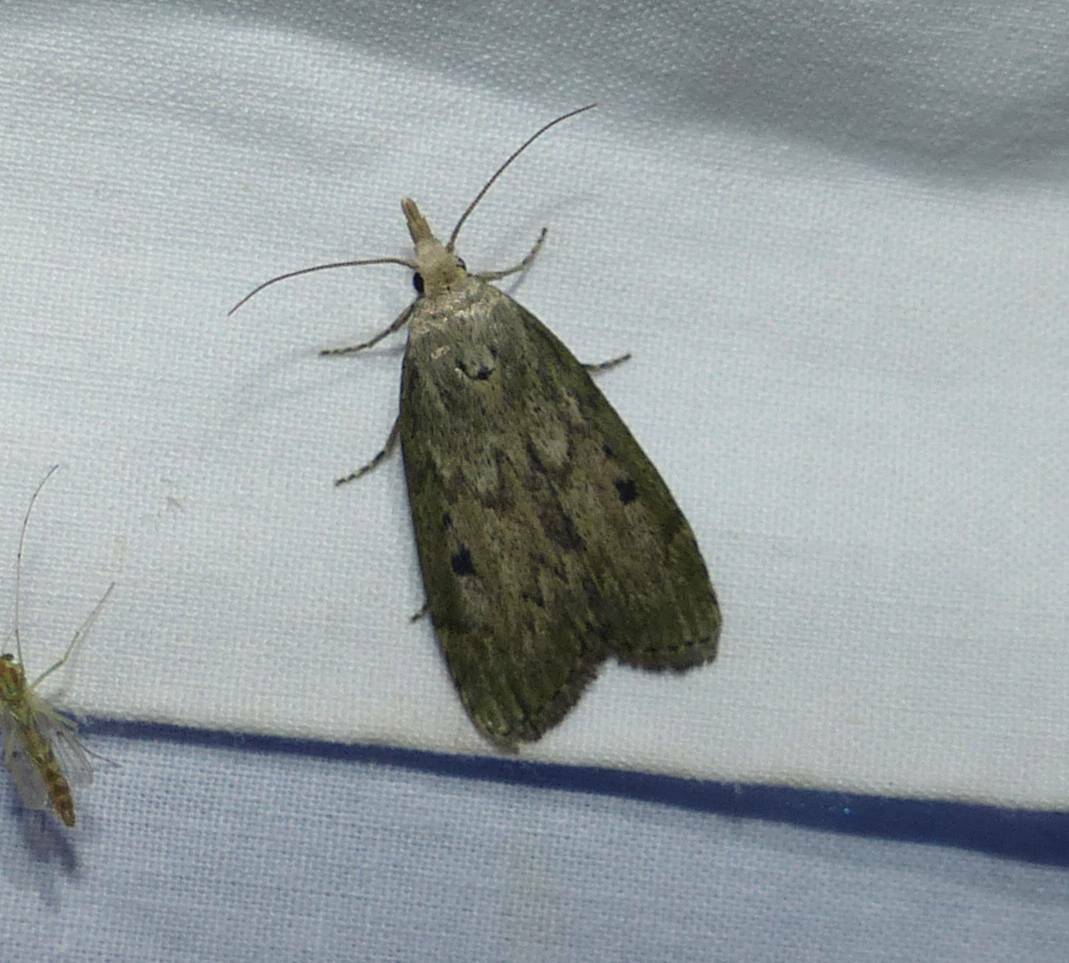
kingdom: Animalia
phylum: Arthropoda
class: Insecta
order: Lepidoptera
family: Pyralidae
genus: Aphomia
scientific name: Aphomia sociella
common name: Bee moth
